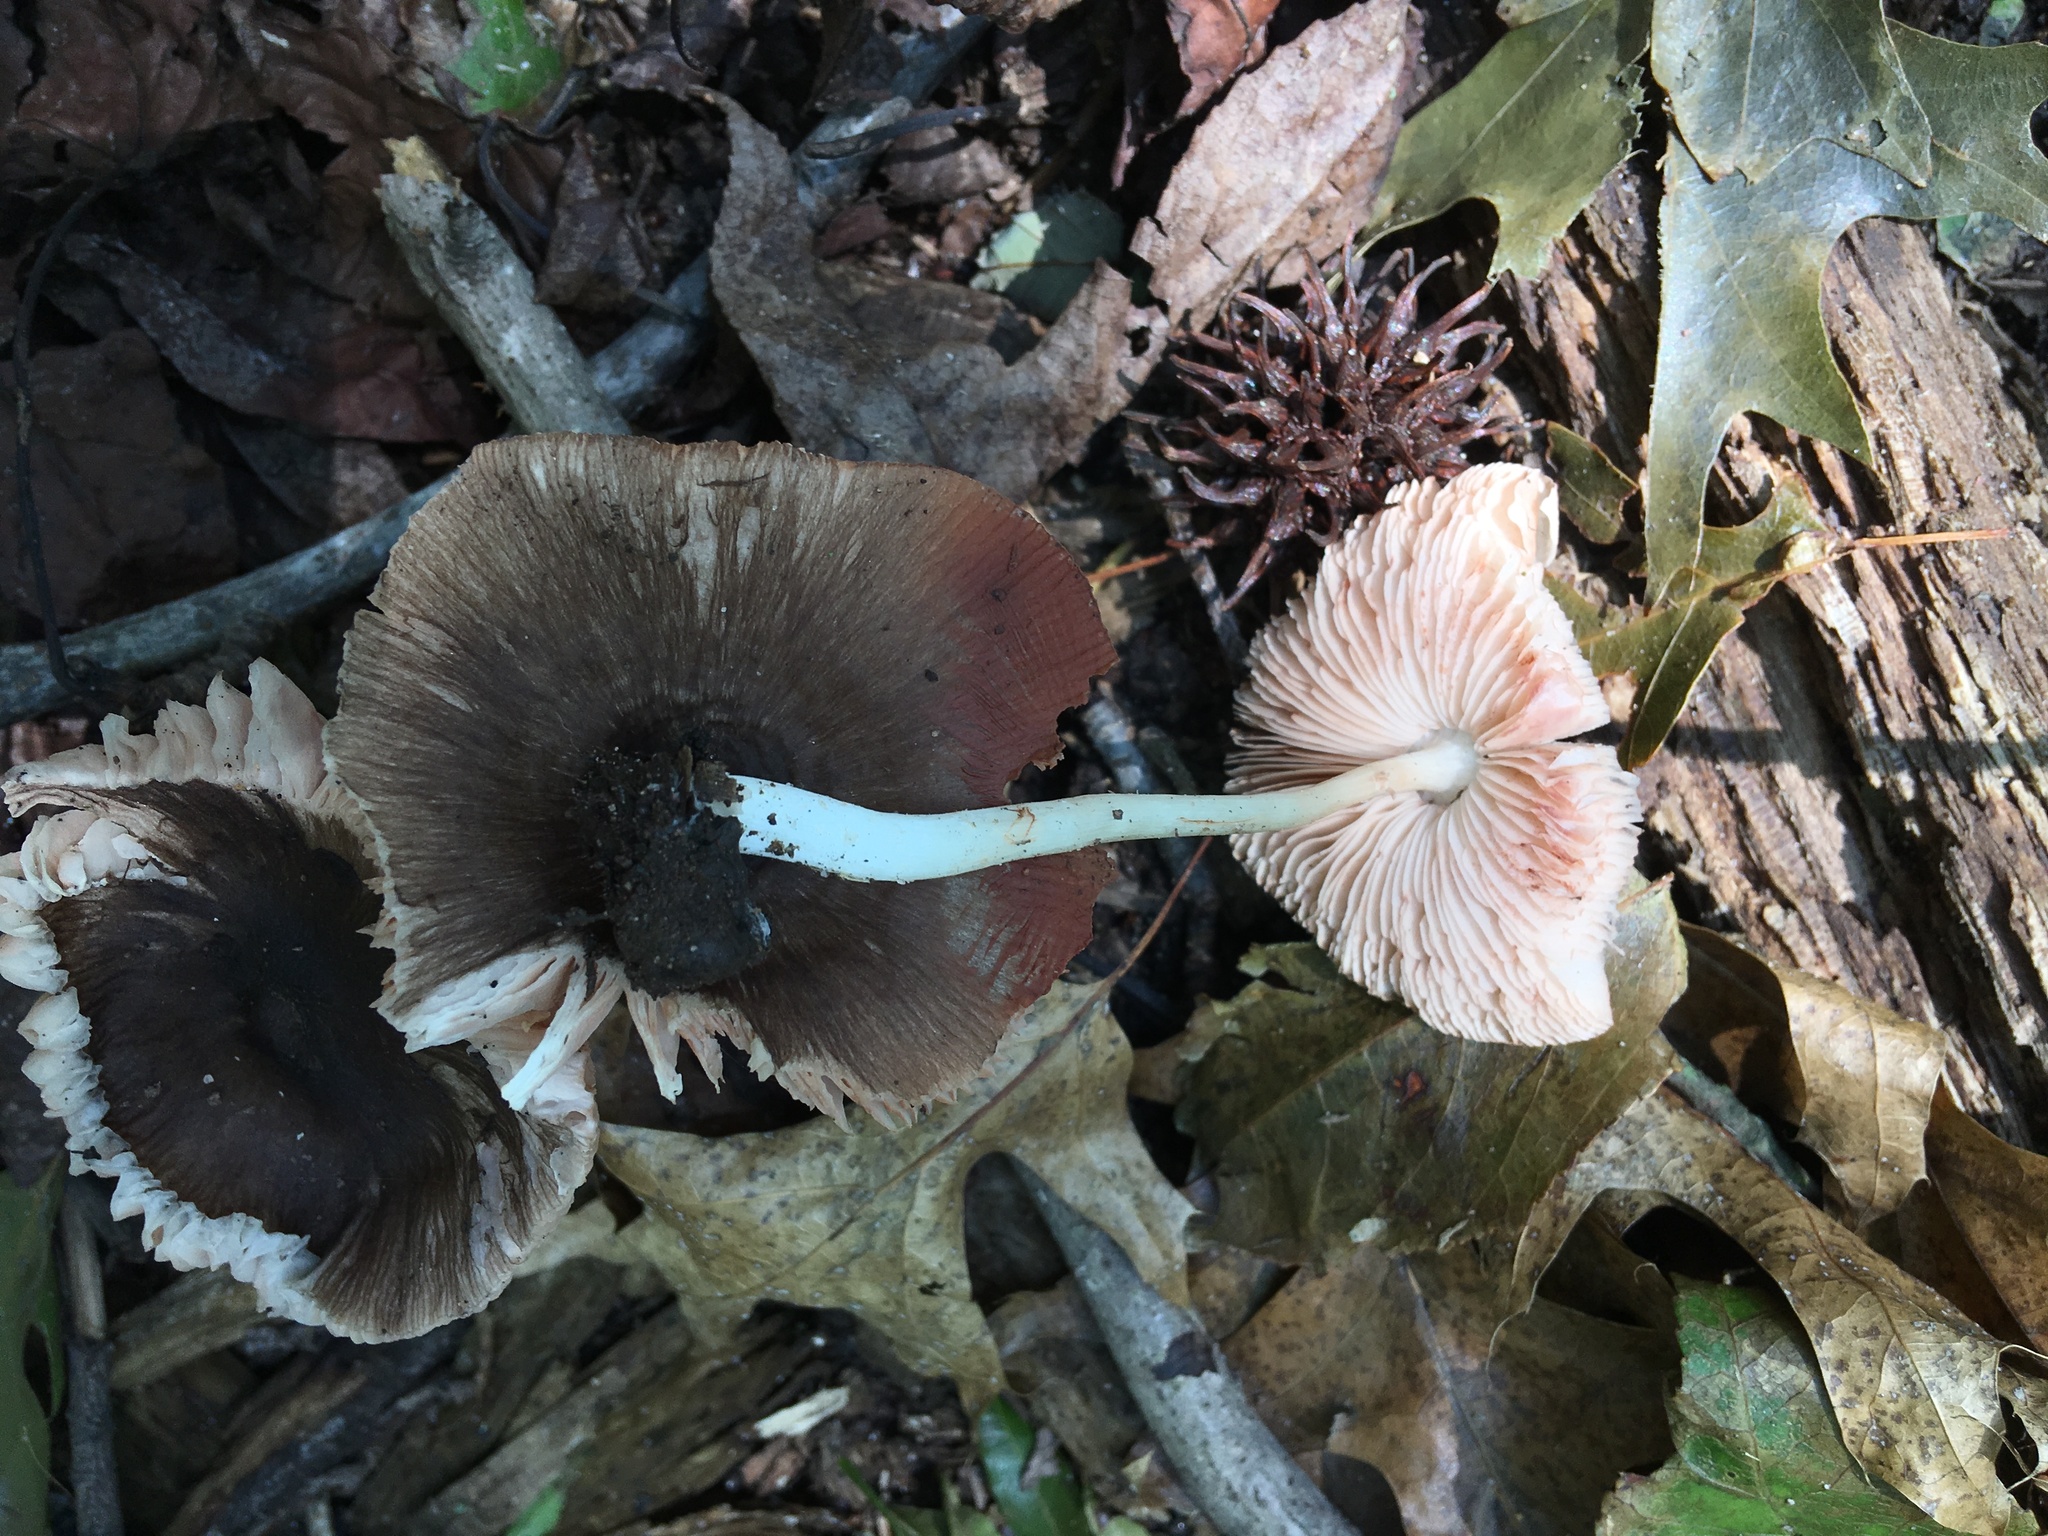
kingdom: Fungi
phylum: Basidiomycota
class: Agaricomycetes
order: Agaricales
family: Pluteaceae
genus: Pluteus
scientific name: Pluteus septocystidiatus
